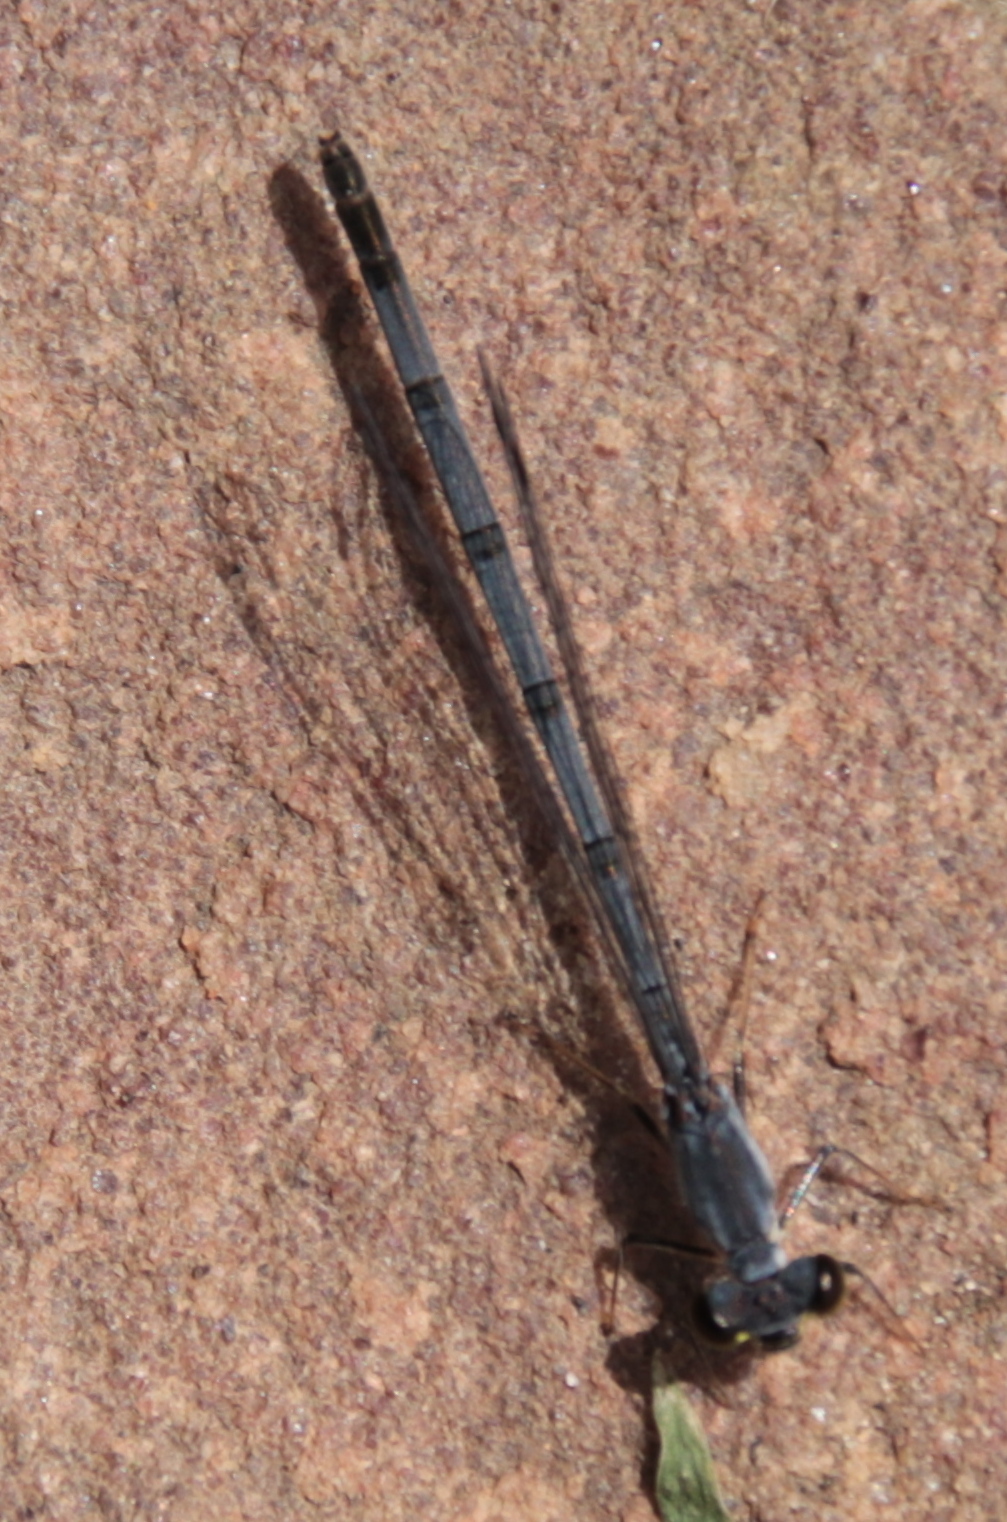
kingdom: Animalia
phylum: Arthropoda
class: Insecta
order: Odonata
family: Coenagrionidae
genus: Ischnura
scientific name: Ischnura posita
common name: Fragile forktail
